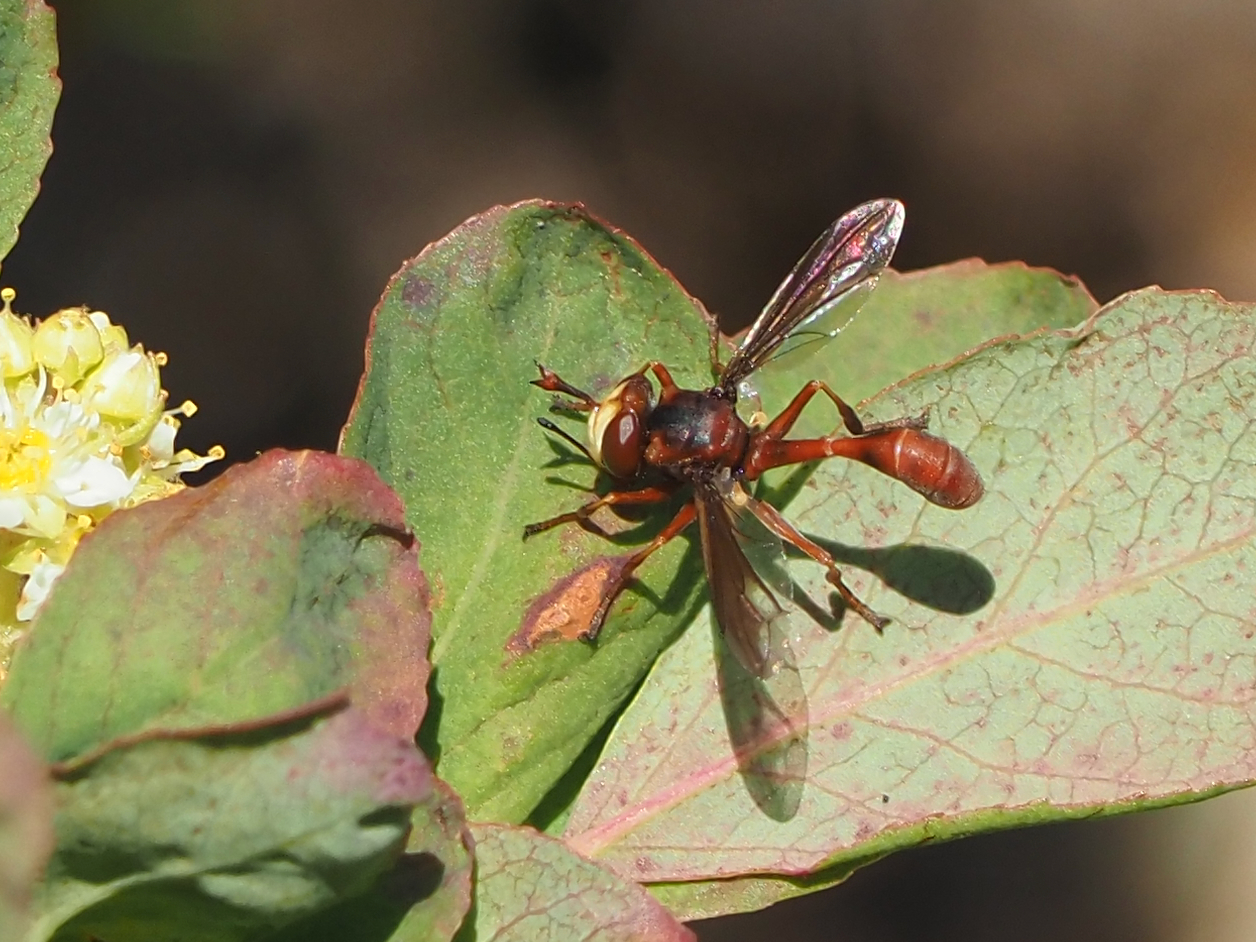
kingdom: Animalia
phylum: Arthropoda
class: Insecta
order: Diptera
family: Conopidae
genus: Physocephala
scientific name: Physocephala texana
